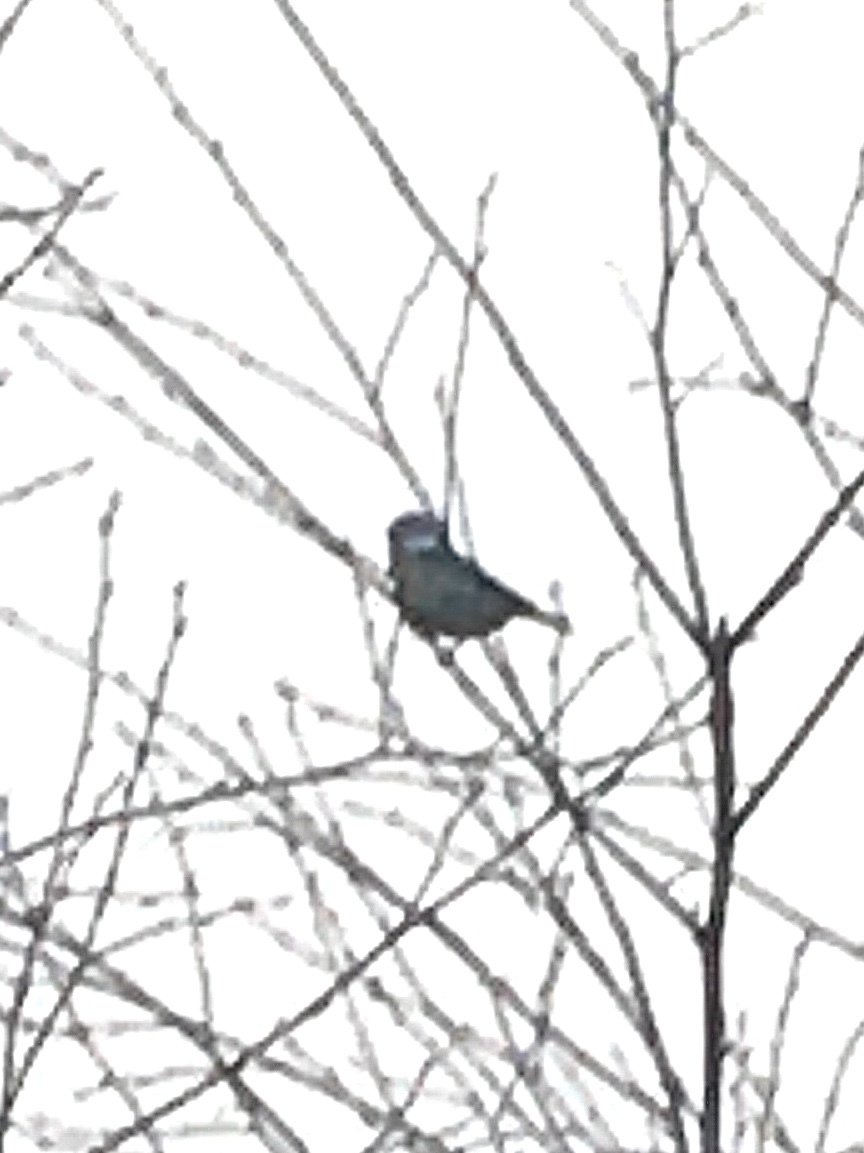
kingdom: Animalia
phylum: Chordata
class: Aves
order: Passeriformes
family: Paridae
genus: Cyanistes
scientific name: Cyanistes caeruleus
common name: Eurasian blue tit
